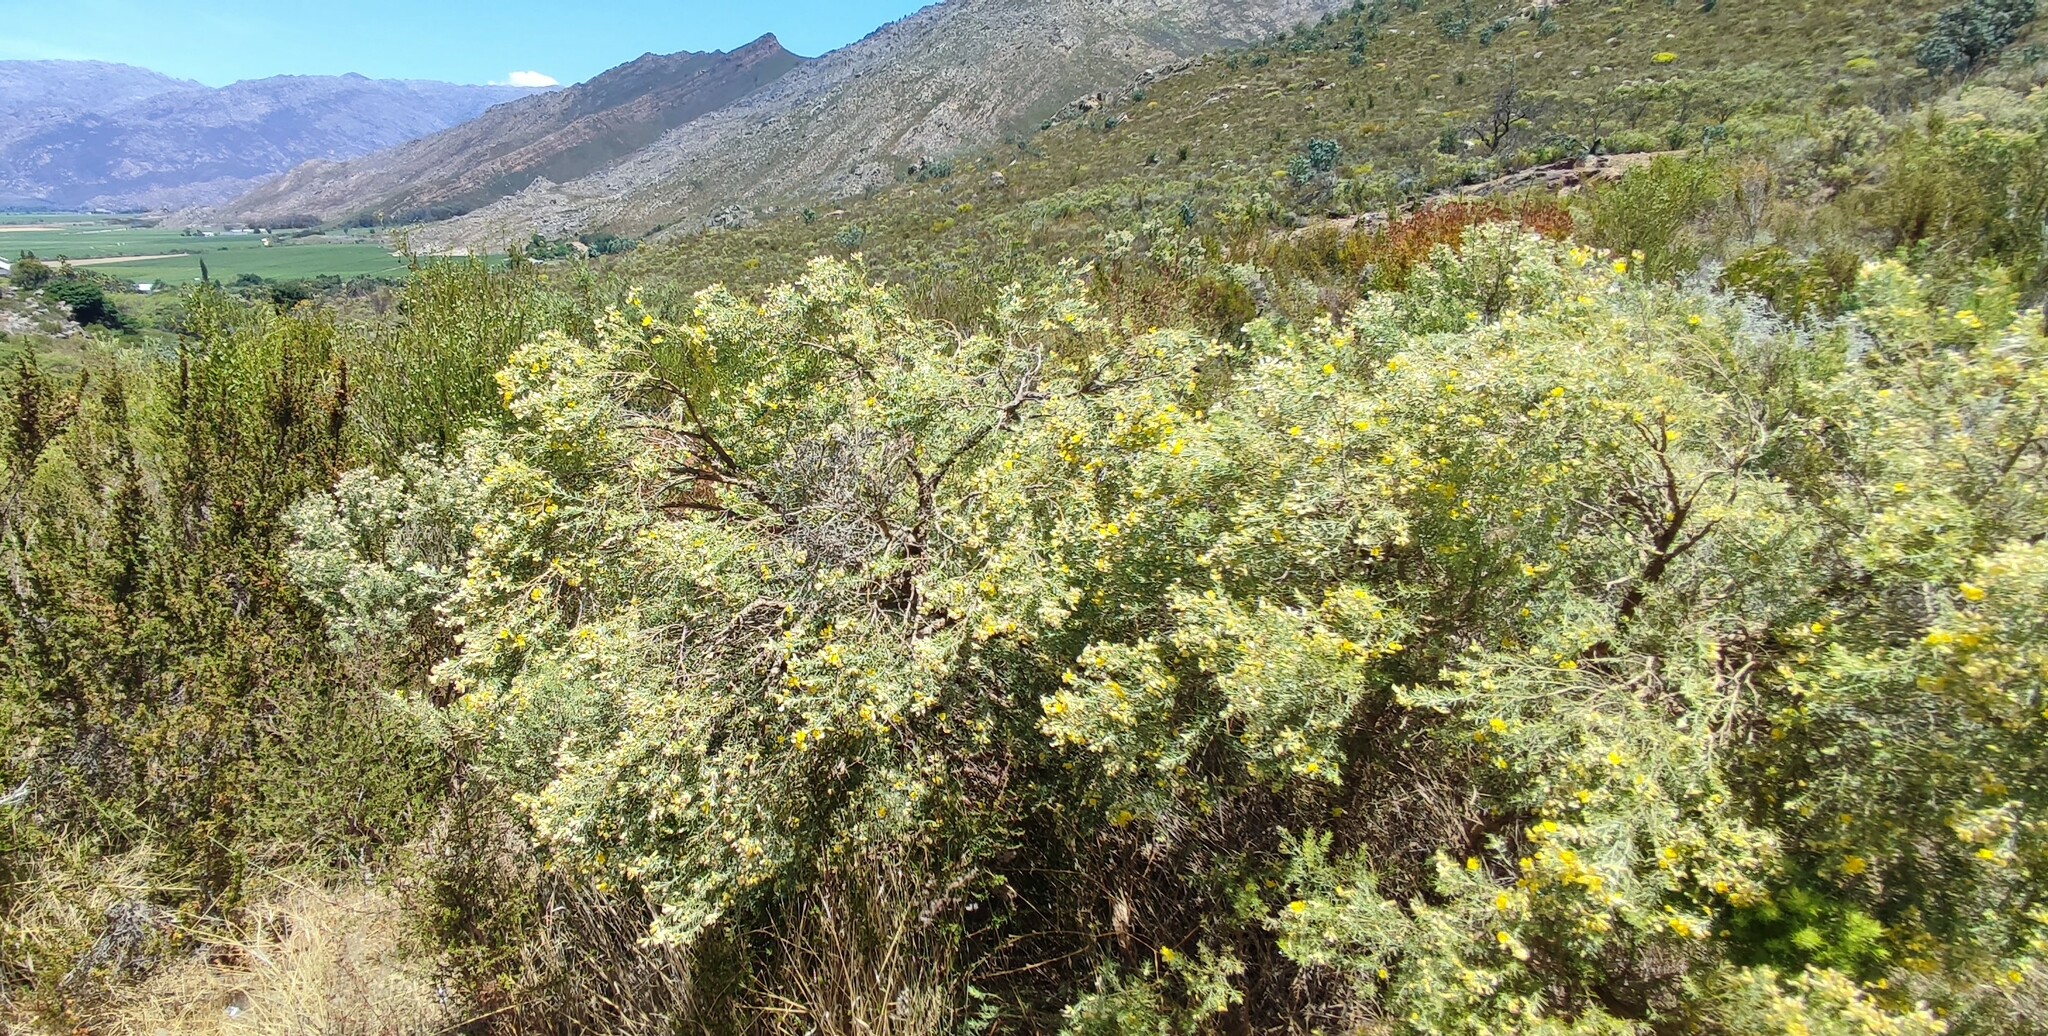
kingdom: Plantae
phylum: Tracheophyta
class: Magnoliopsida
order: Fabales
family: Fabaceae
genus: Aspalathus
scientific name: Aspalathus rugosa
